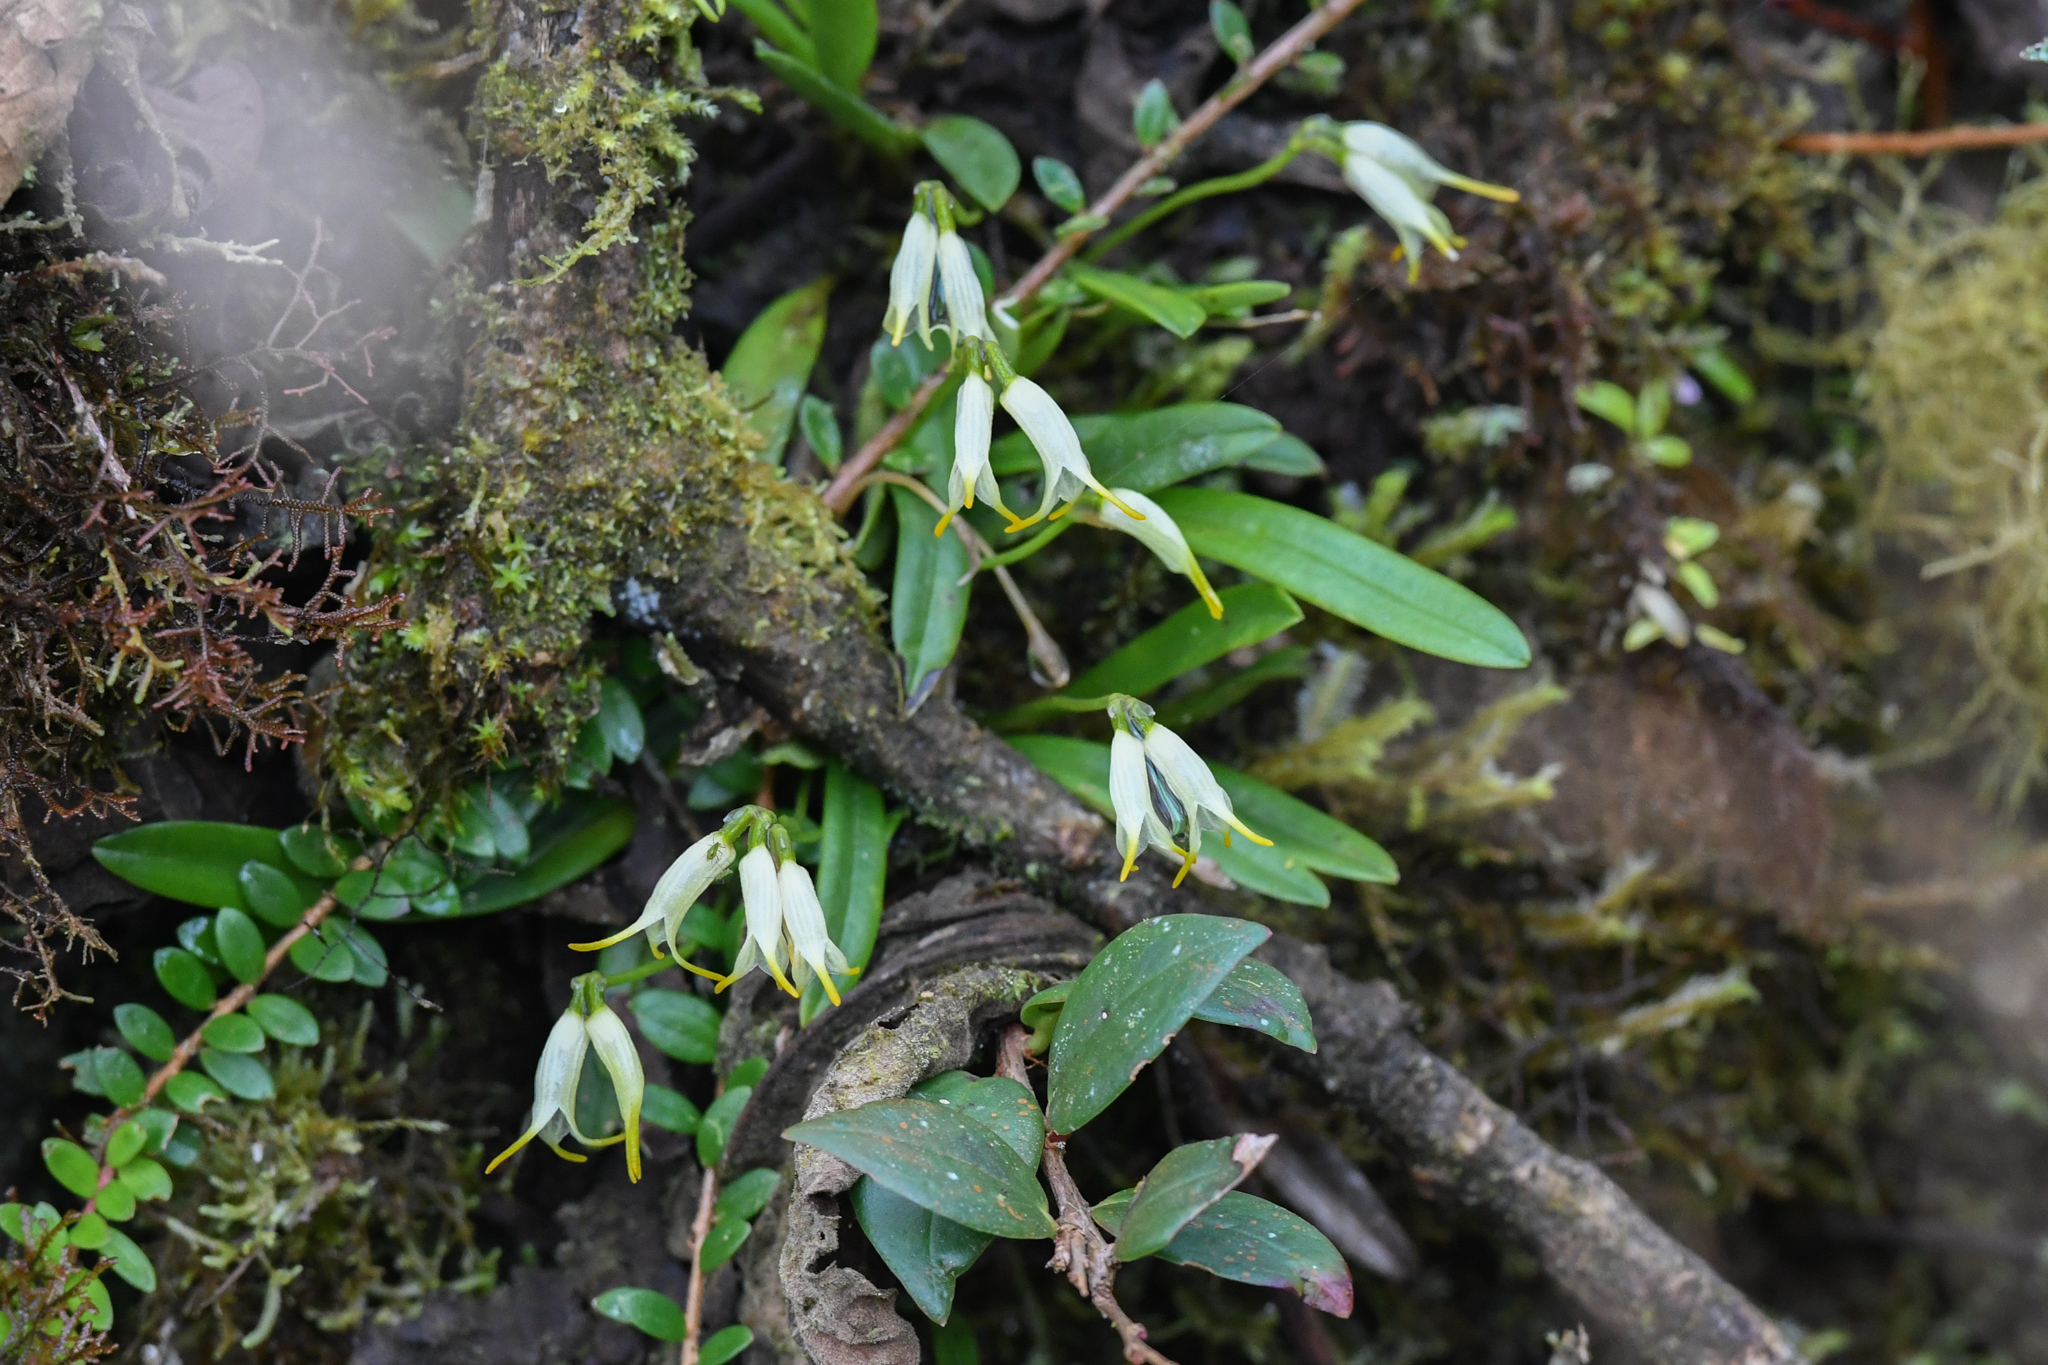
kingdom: Plantae
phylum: Tracheophyta
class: Liliopsida
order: Asparagales
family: Orchidaceae
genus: Masdevallia
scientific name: Masdevallia chontalensis
